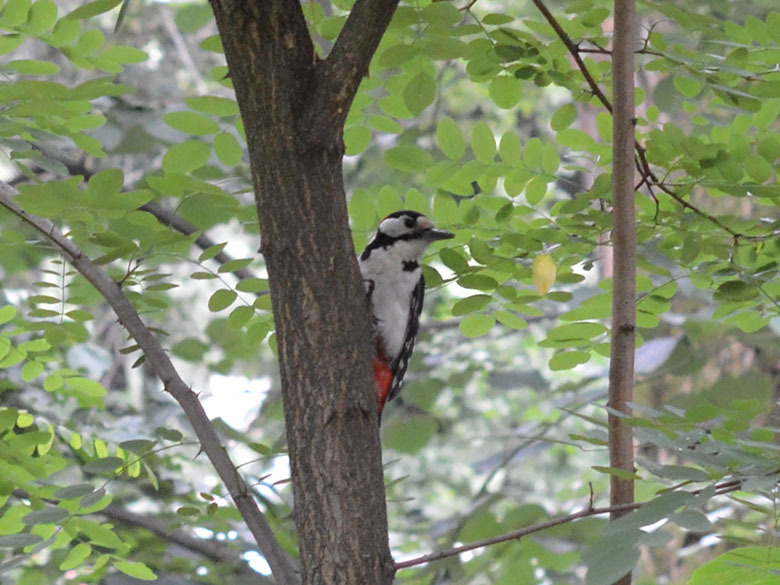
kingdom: Animalia
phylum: Chordata
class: Aves
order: Piciformes
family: Picidae
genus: Dendrocopos
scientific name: Dendrocopos major
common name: Great spotted woodpecker
